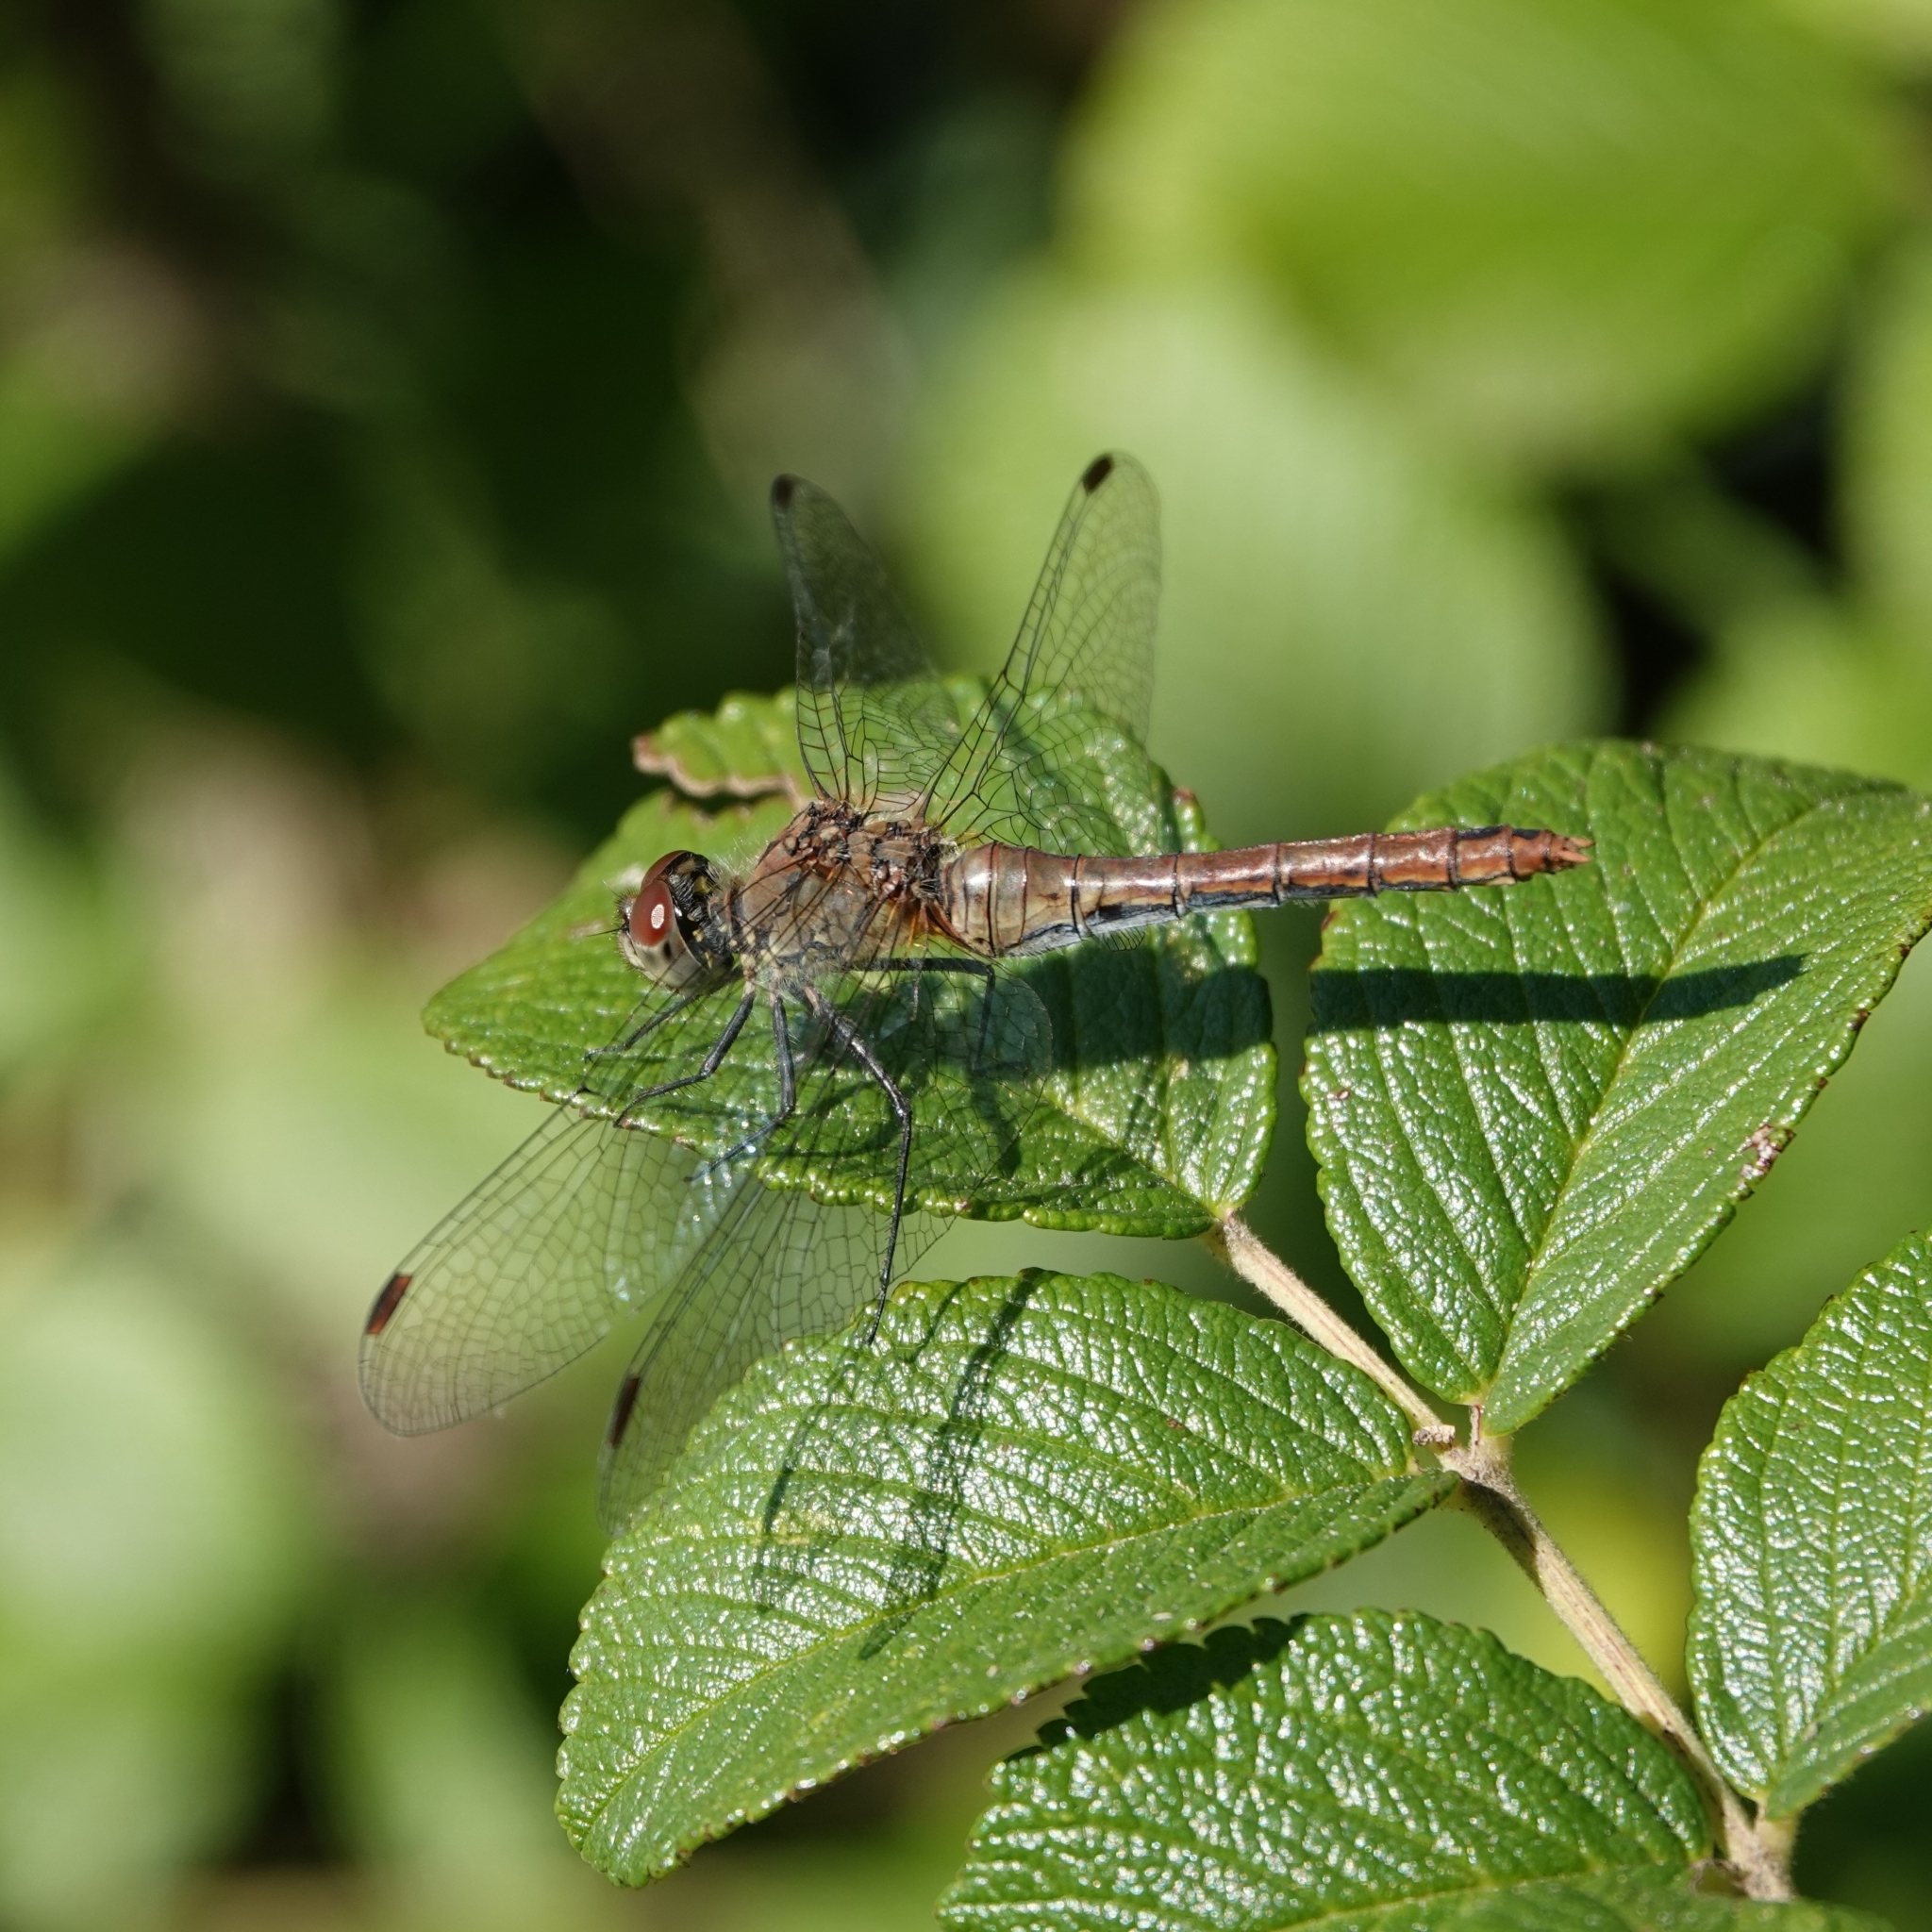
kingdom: Animalia
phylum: Arthropoda
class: Insecta
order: Odonata
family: Libellulidae
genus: Sympetrum
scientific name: Sympetrum sanguineum
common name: Ruddy darter
